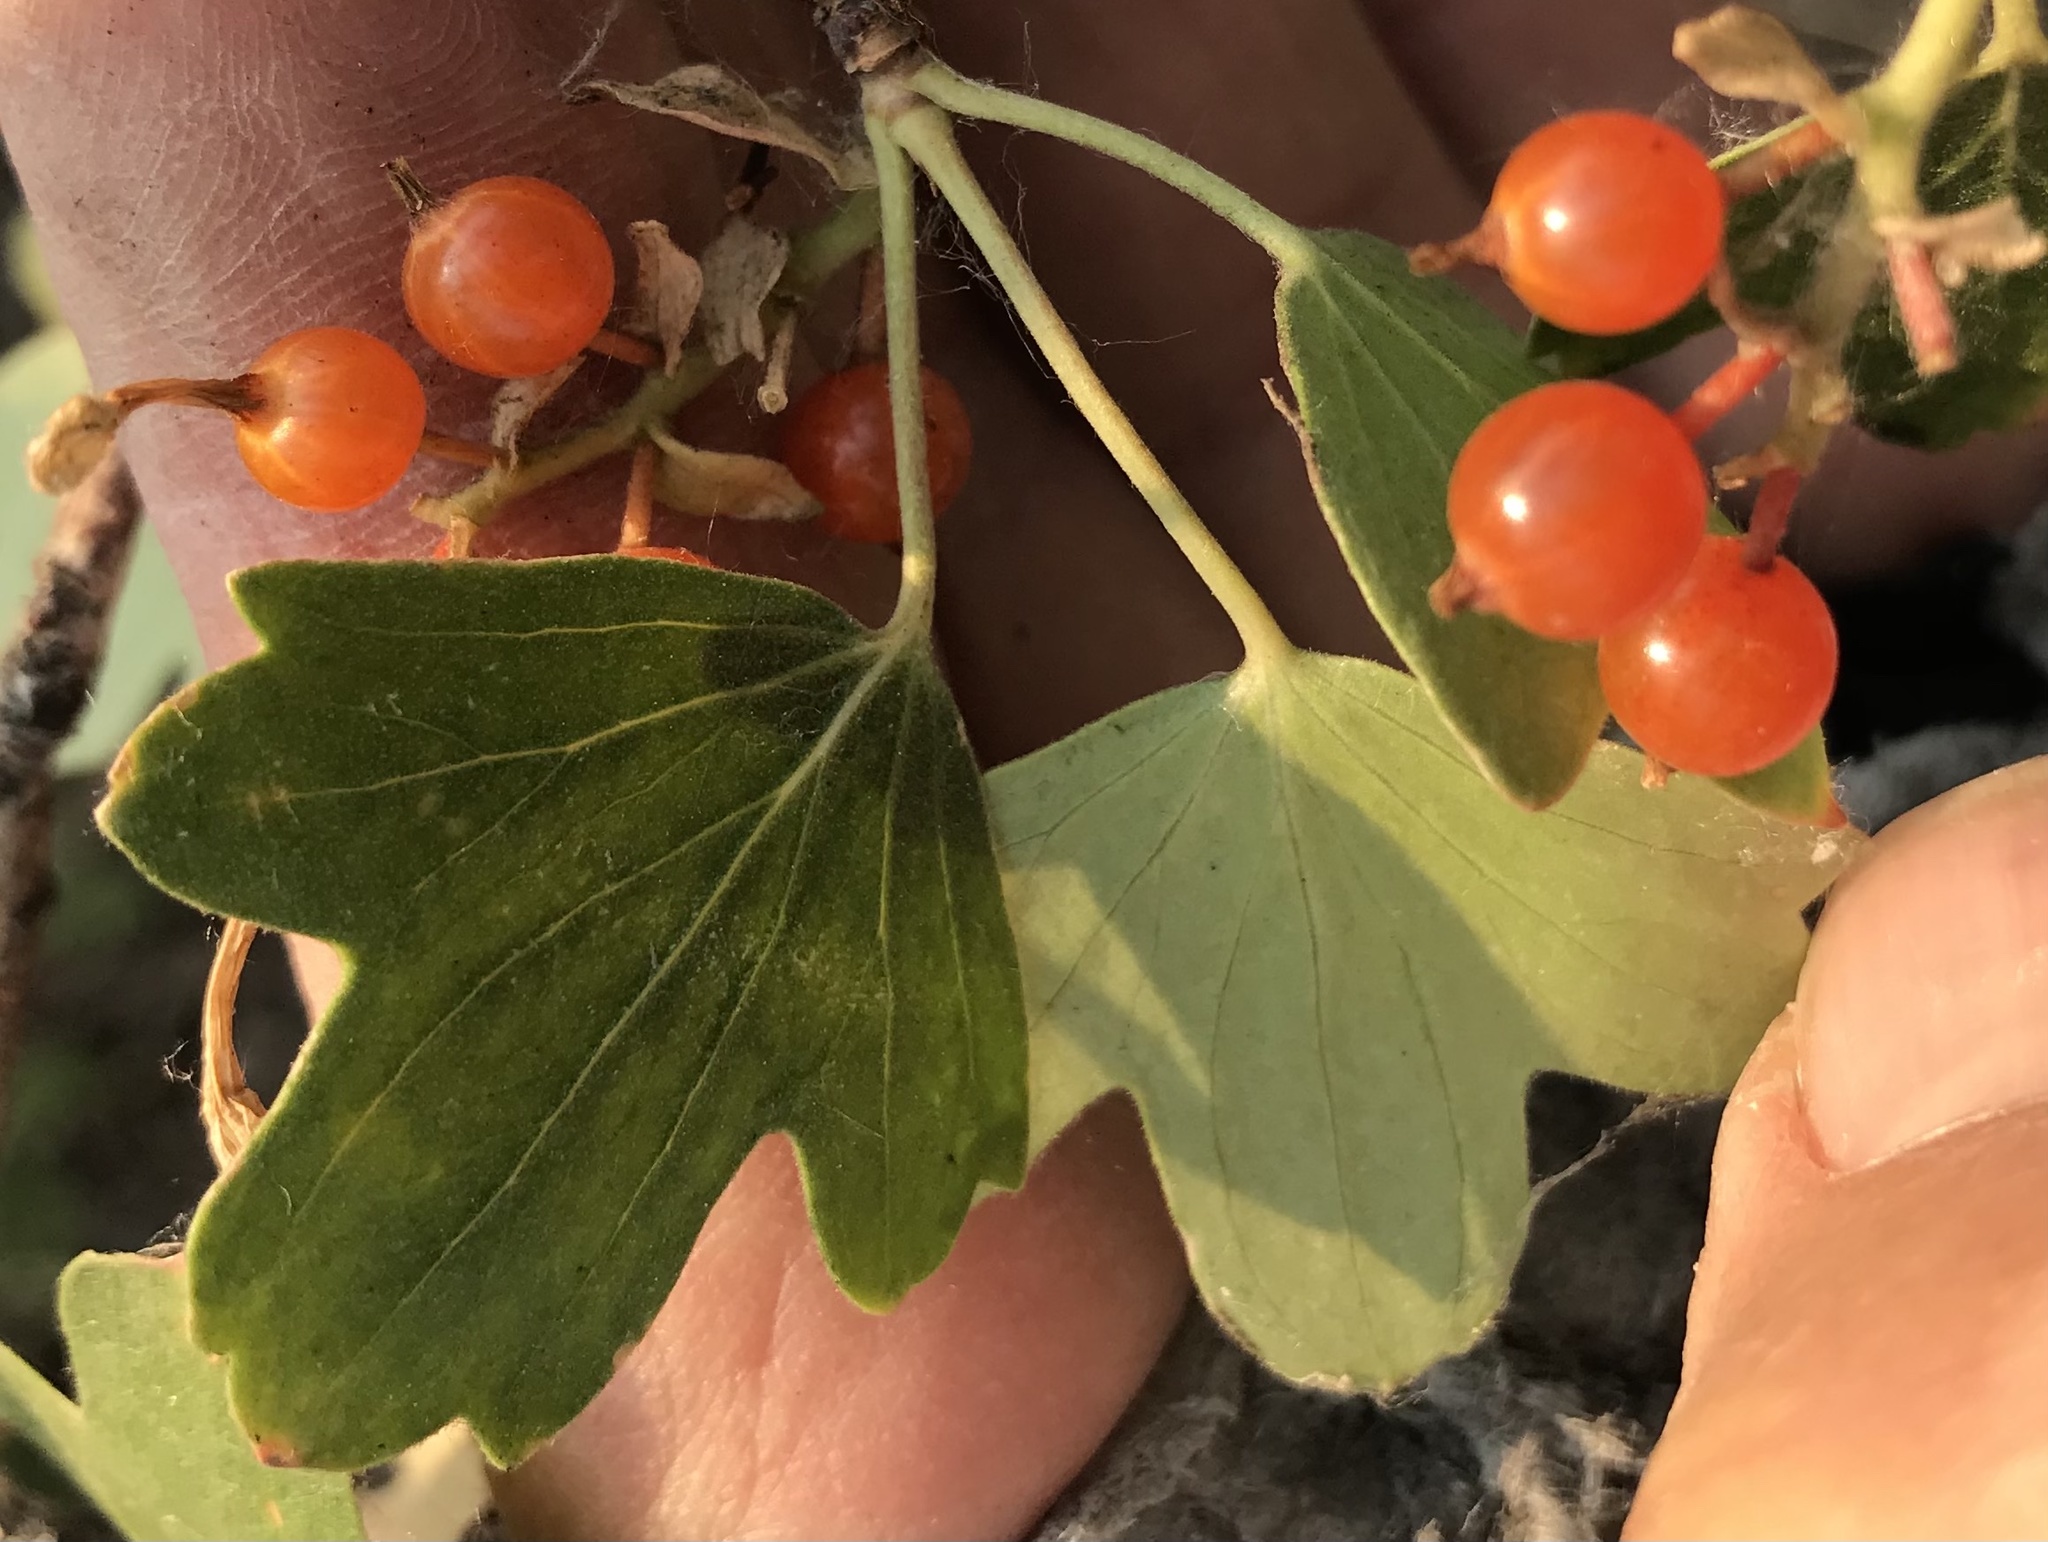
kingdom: Plantae
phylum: Tracheophyta
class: Magnoliopsida
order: Saxifragales
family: Grossulariaceae
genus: Ribes
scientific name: Ribes aureum
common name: Golden currant
